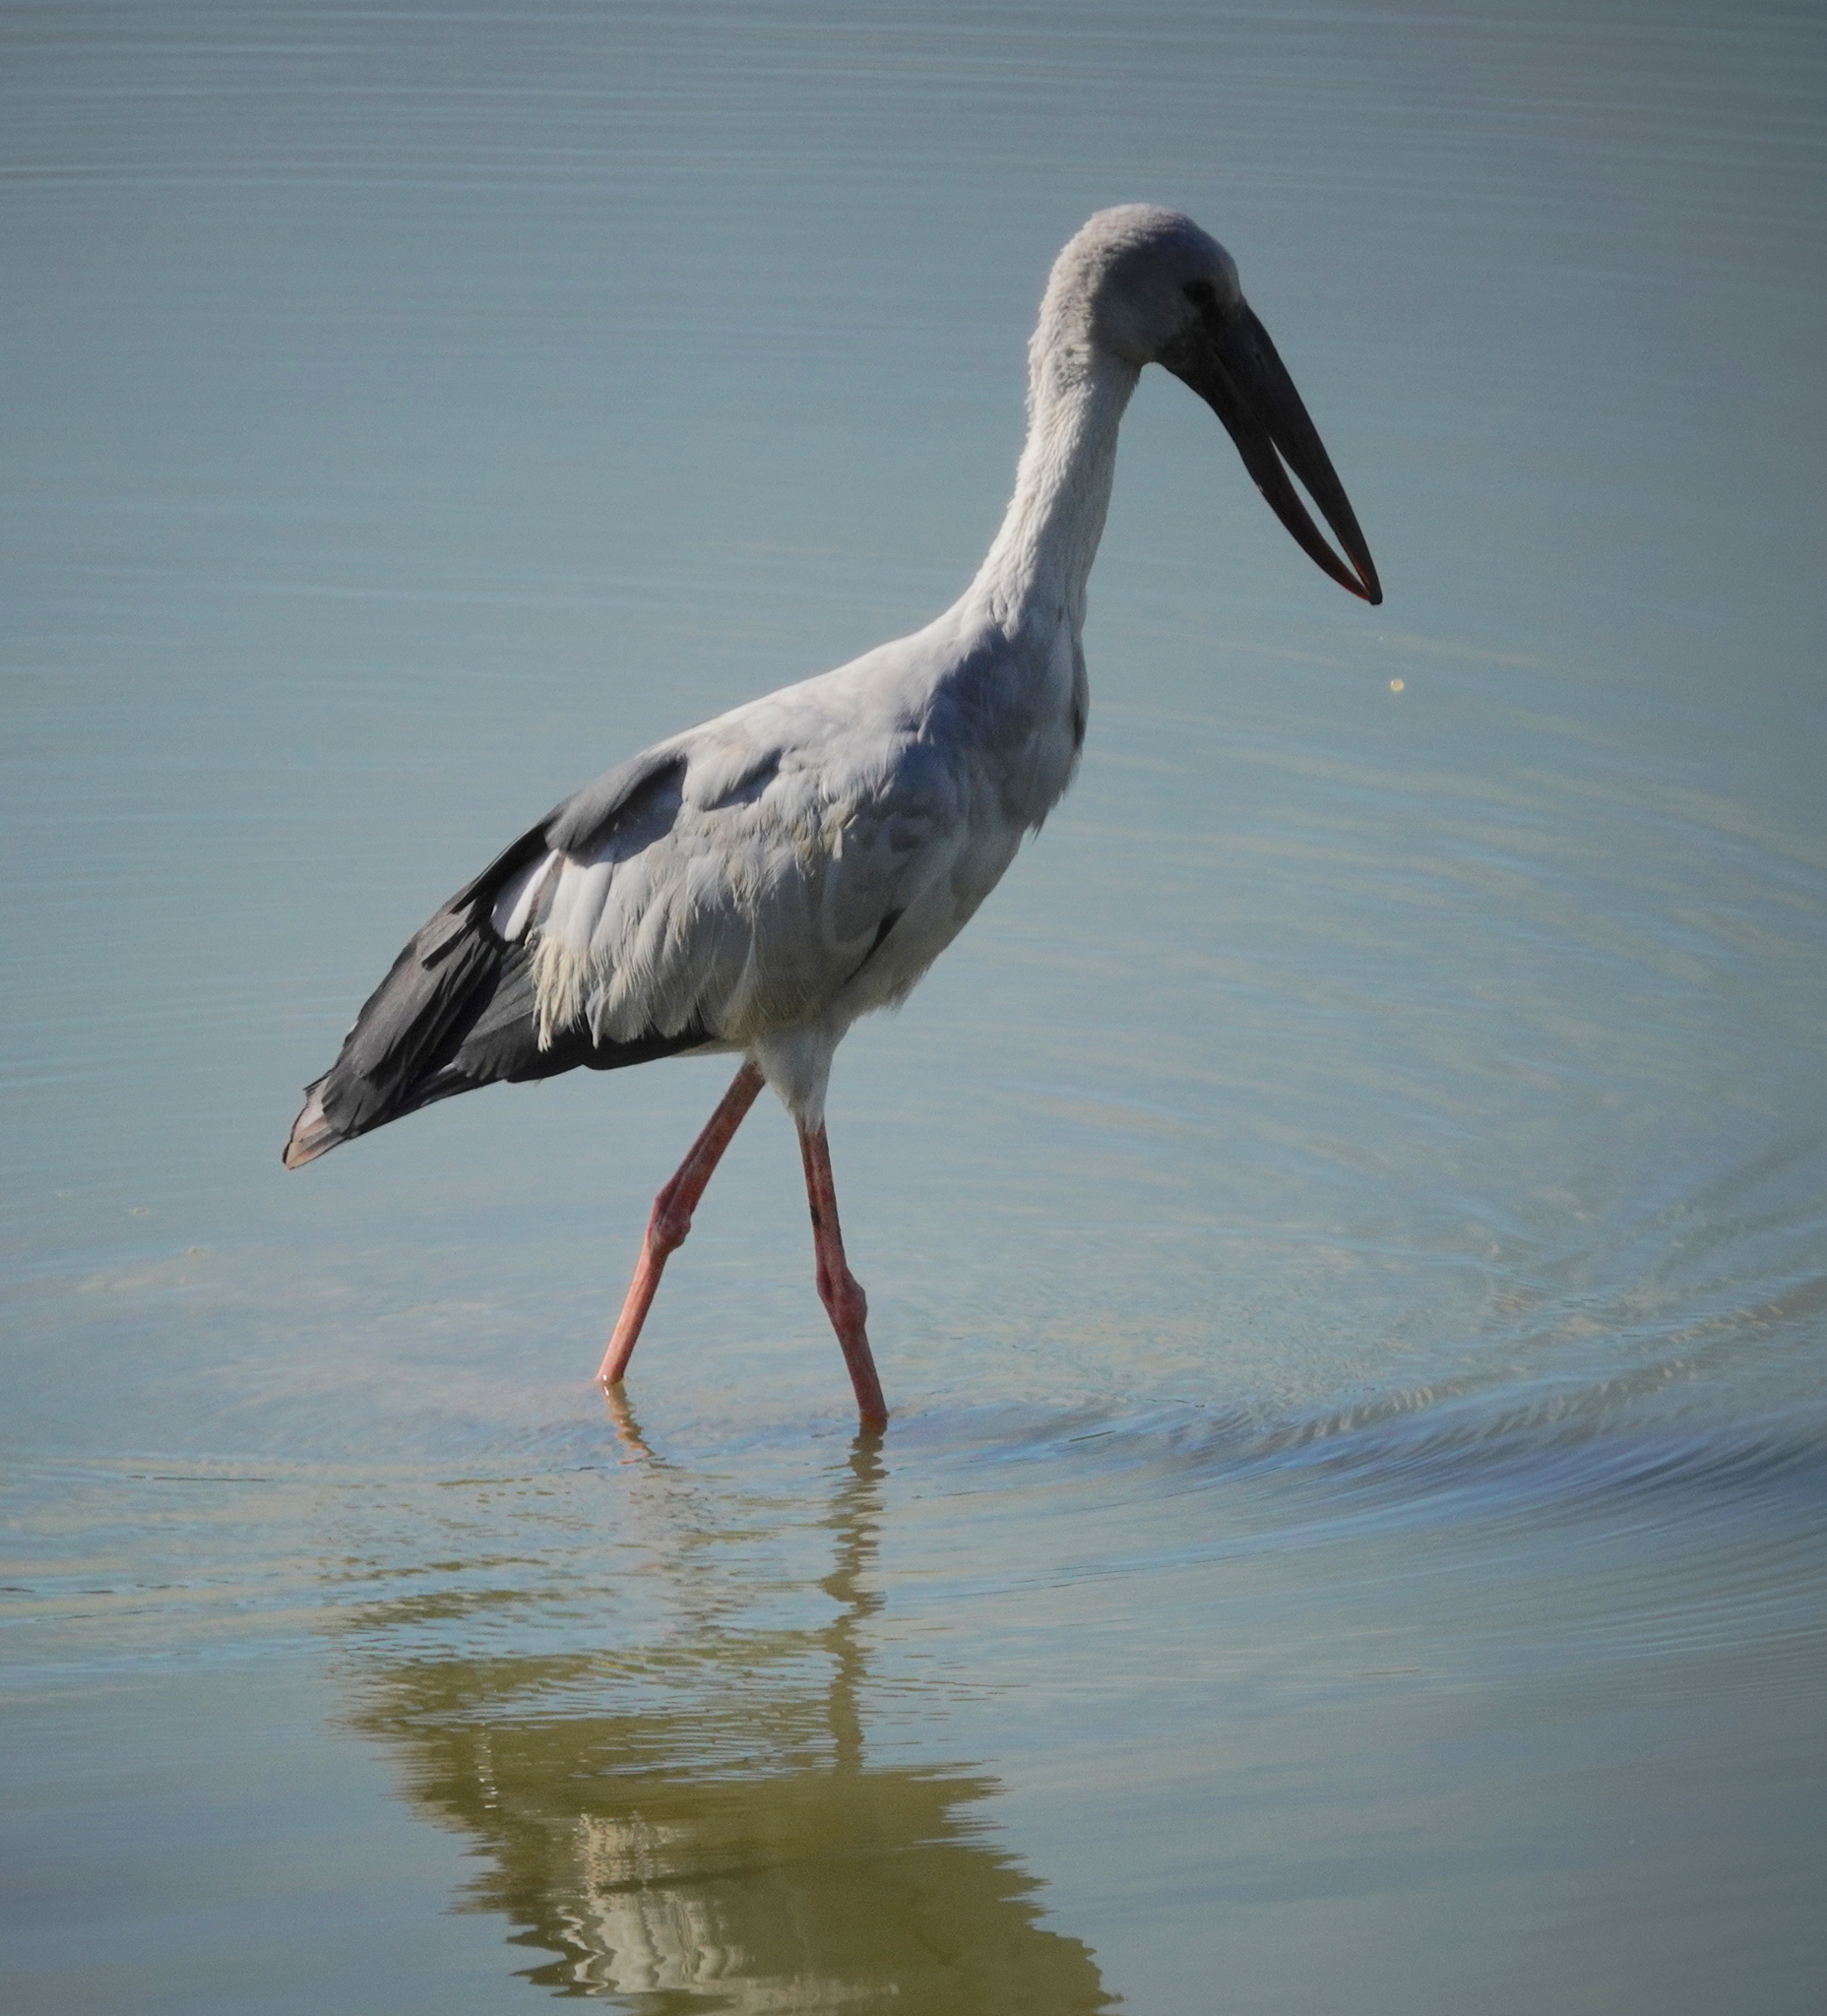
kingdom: Animalia
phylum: Chordata
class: Aves
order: Ciconiiformes
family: Ciconiidae
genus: Anastomus
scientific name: Anastomus oscitans
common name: Asian openbill
